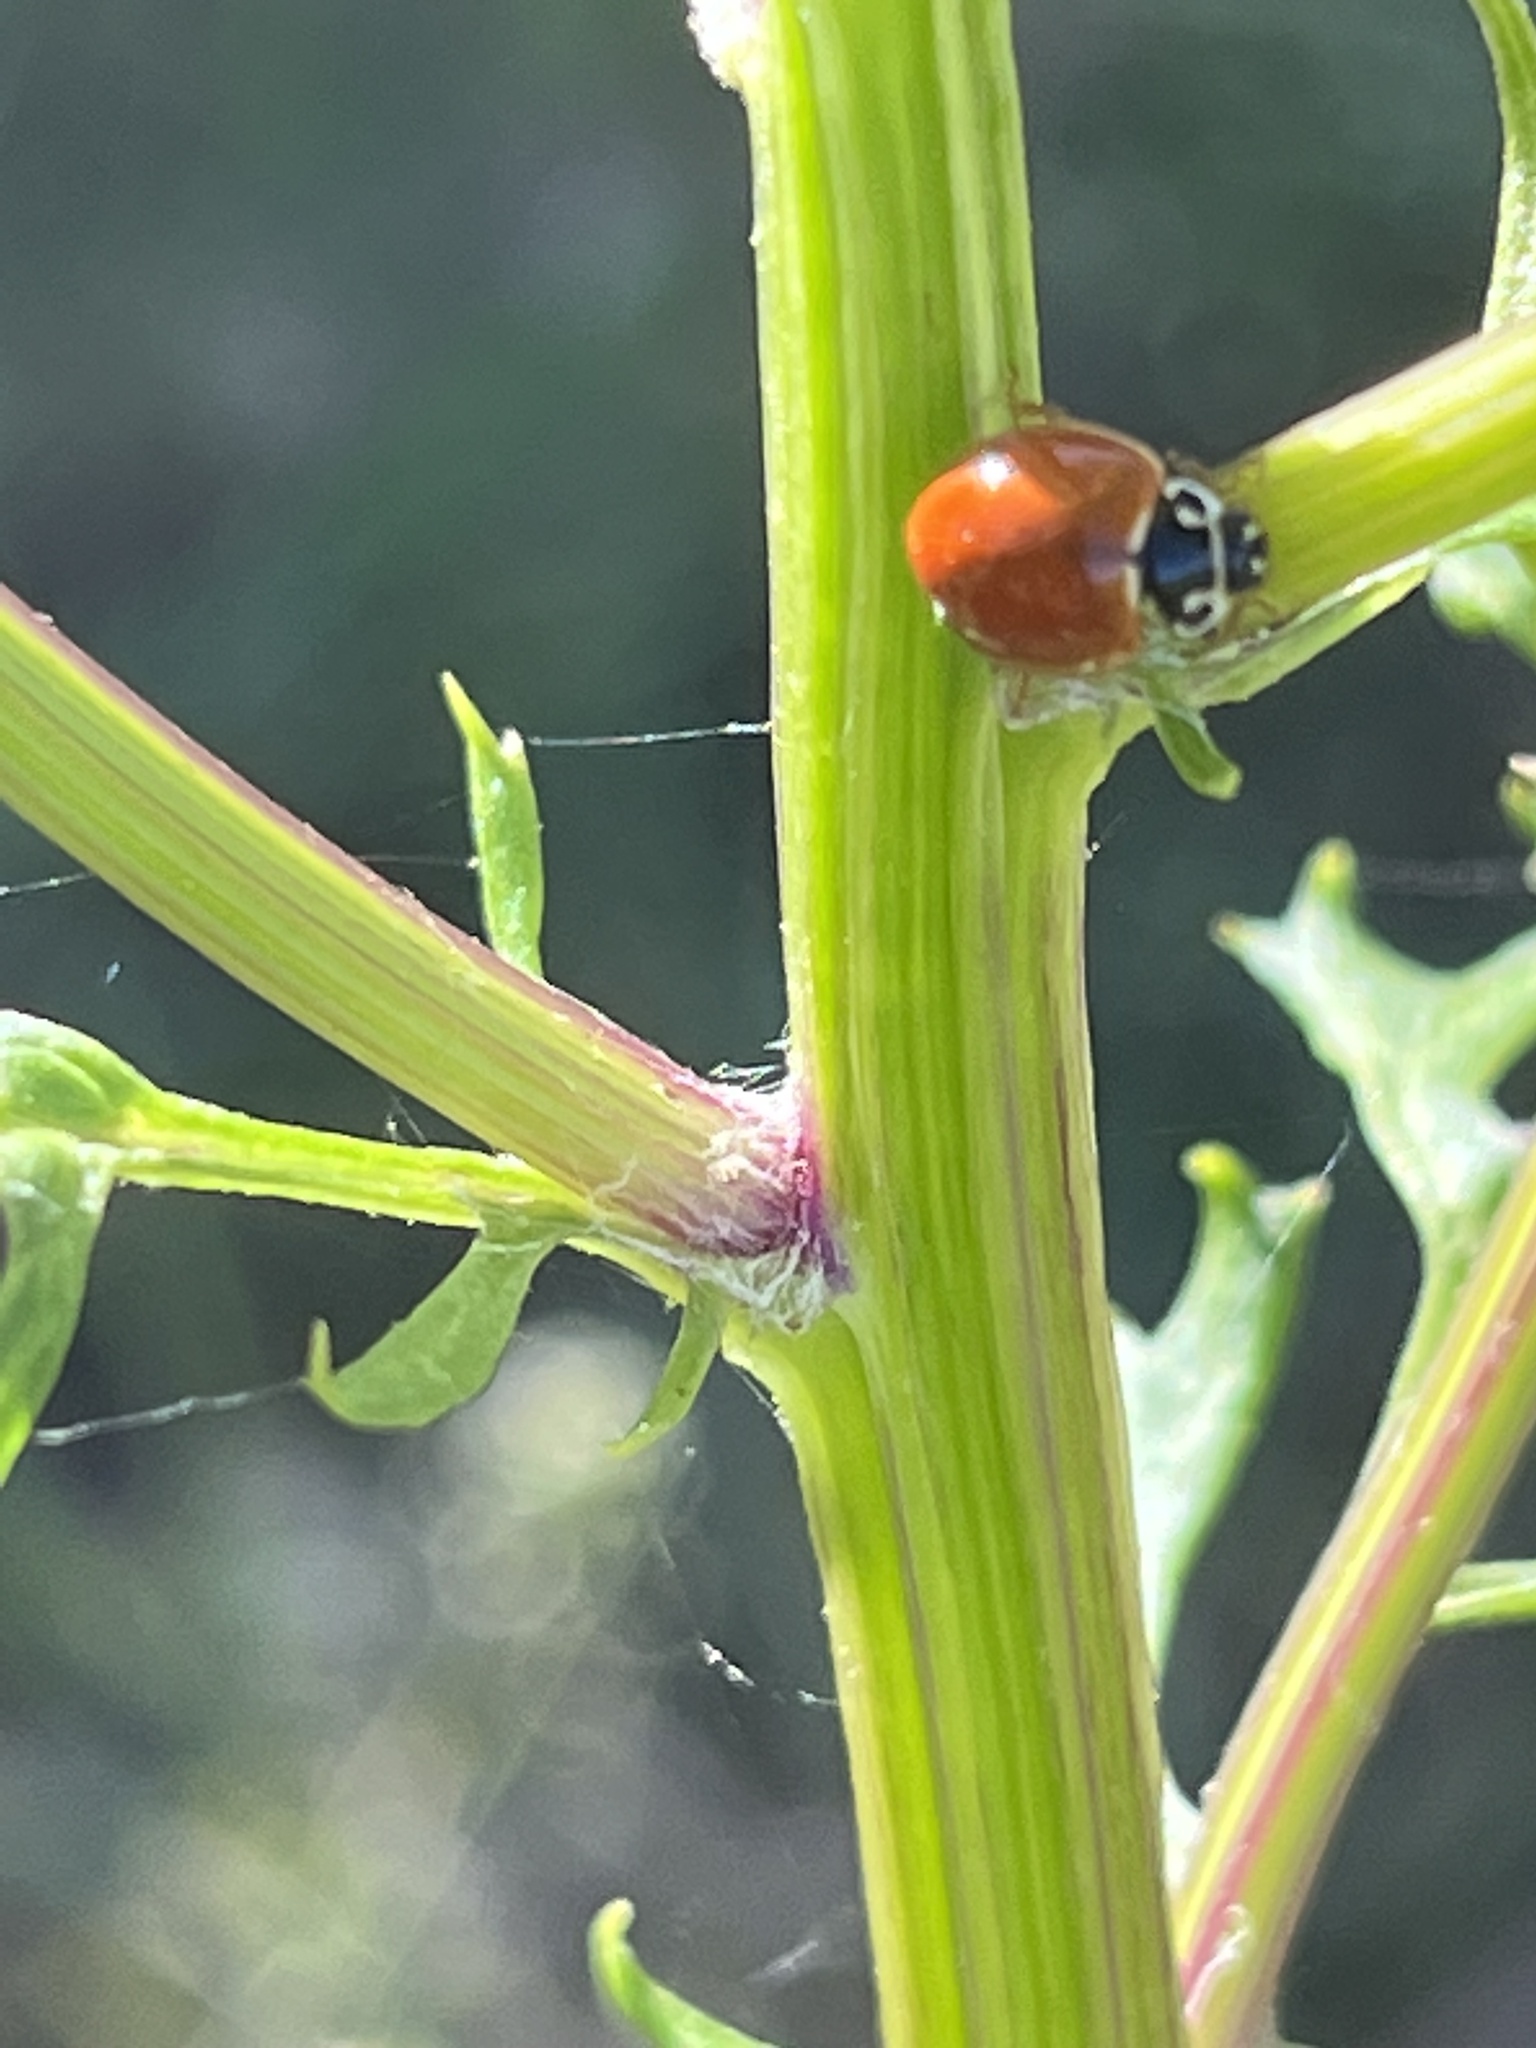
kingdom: Animalia
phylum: Arthropoda
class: Insecta
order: Coleoptera
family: Coccinellidae
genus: Cycloneda
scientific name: Cycloneda munda
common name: Polished lady beetle
